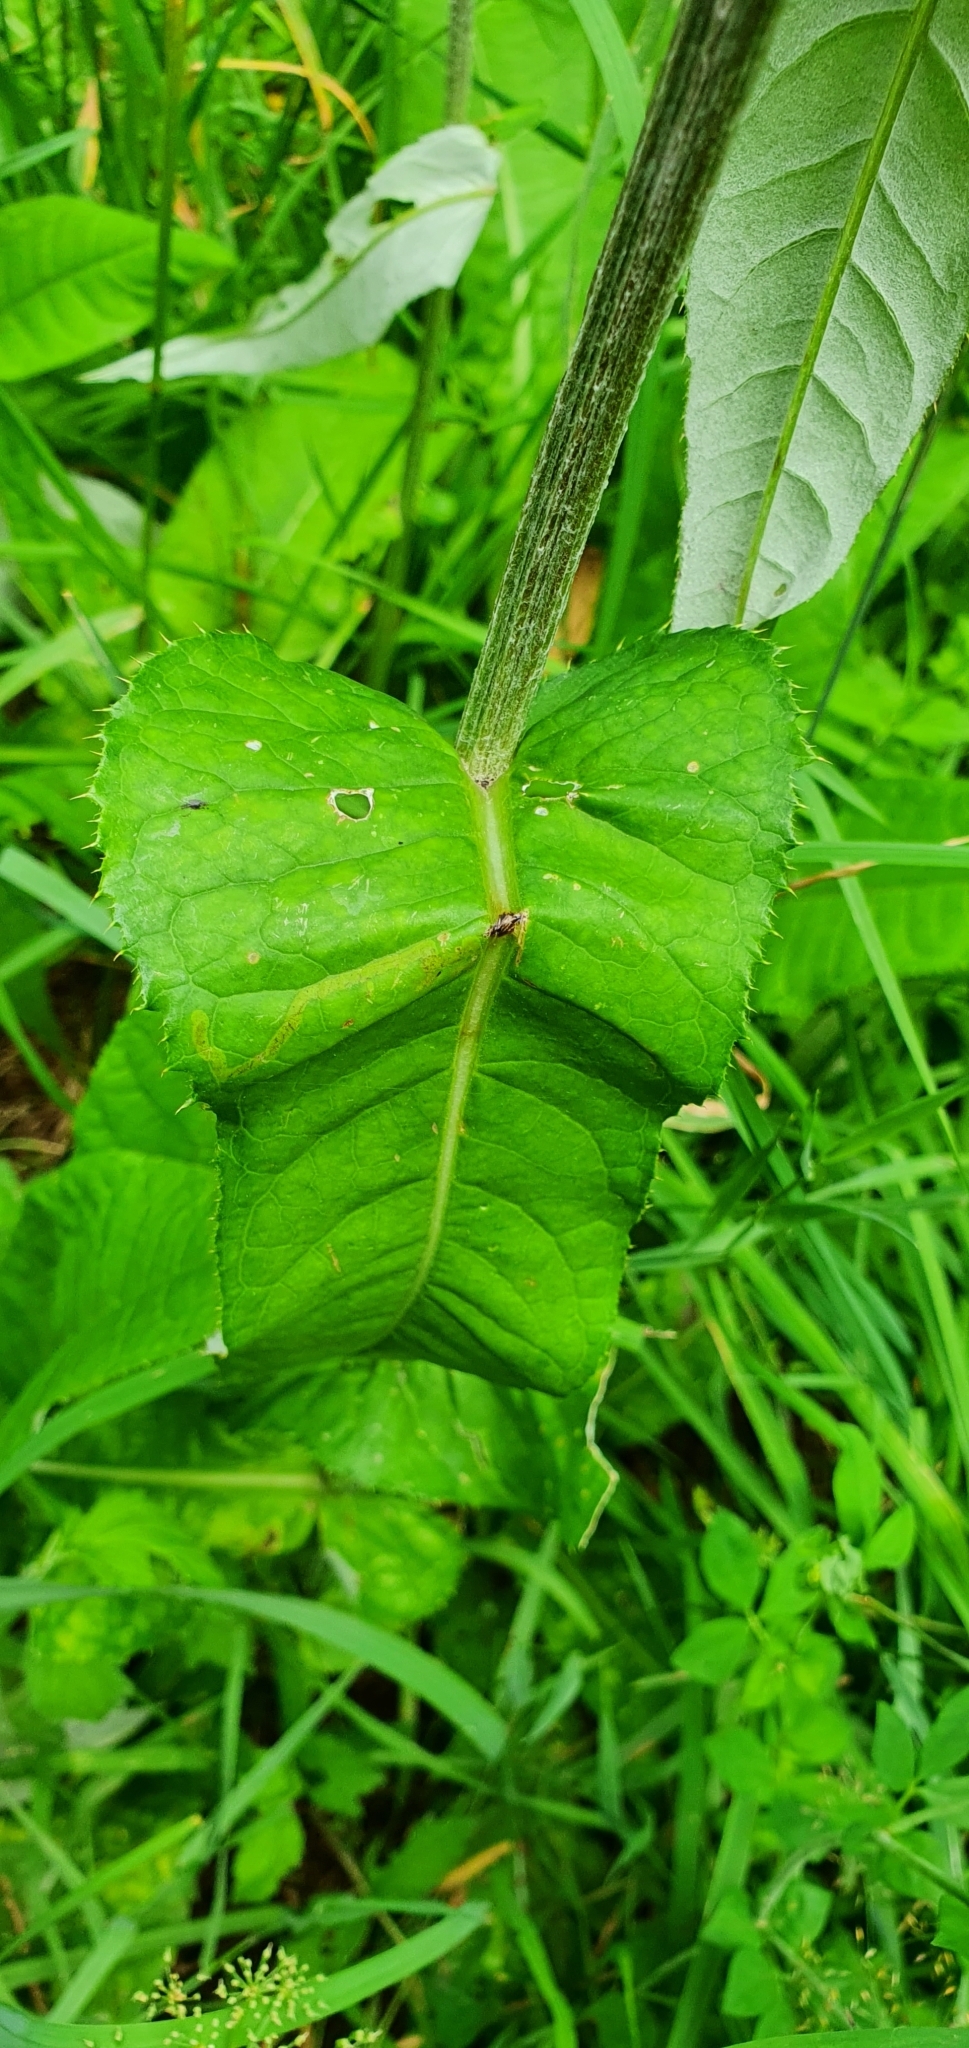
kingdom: Plantae
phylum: Tracheophyta
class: Magnoliopsida
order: Asterales
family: Asteraceae
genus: Cirsium
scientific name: Cirsium heterophyllum
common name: Melancholy thistle
